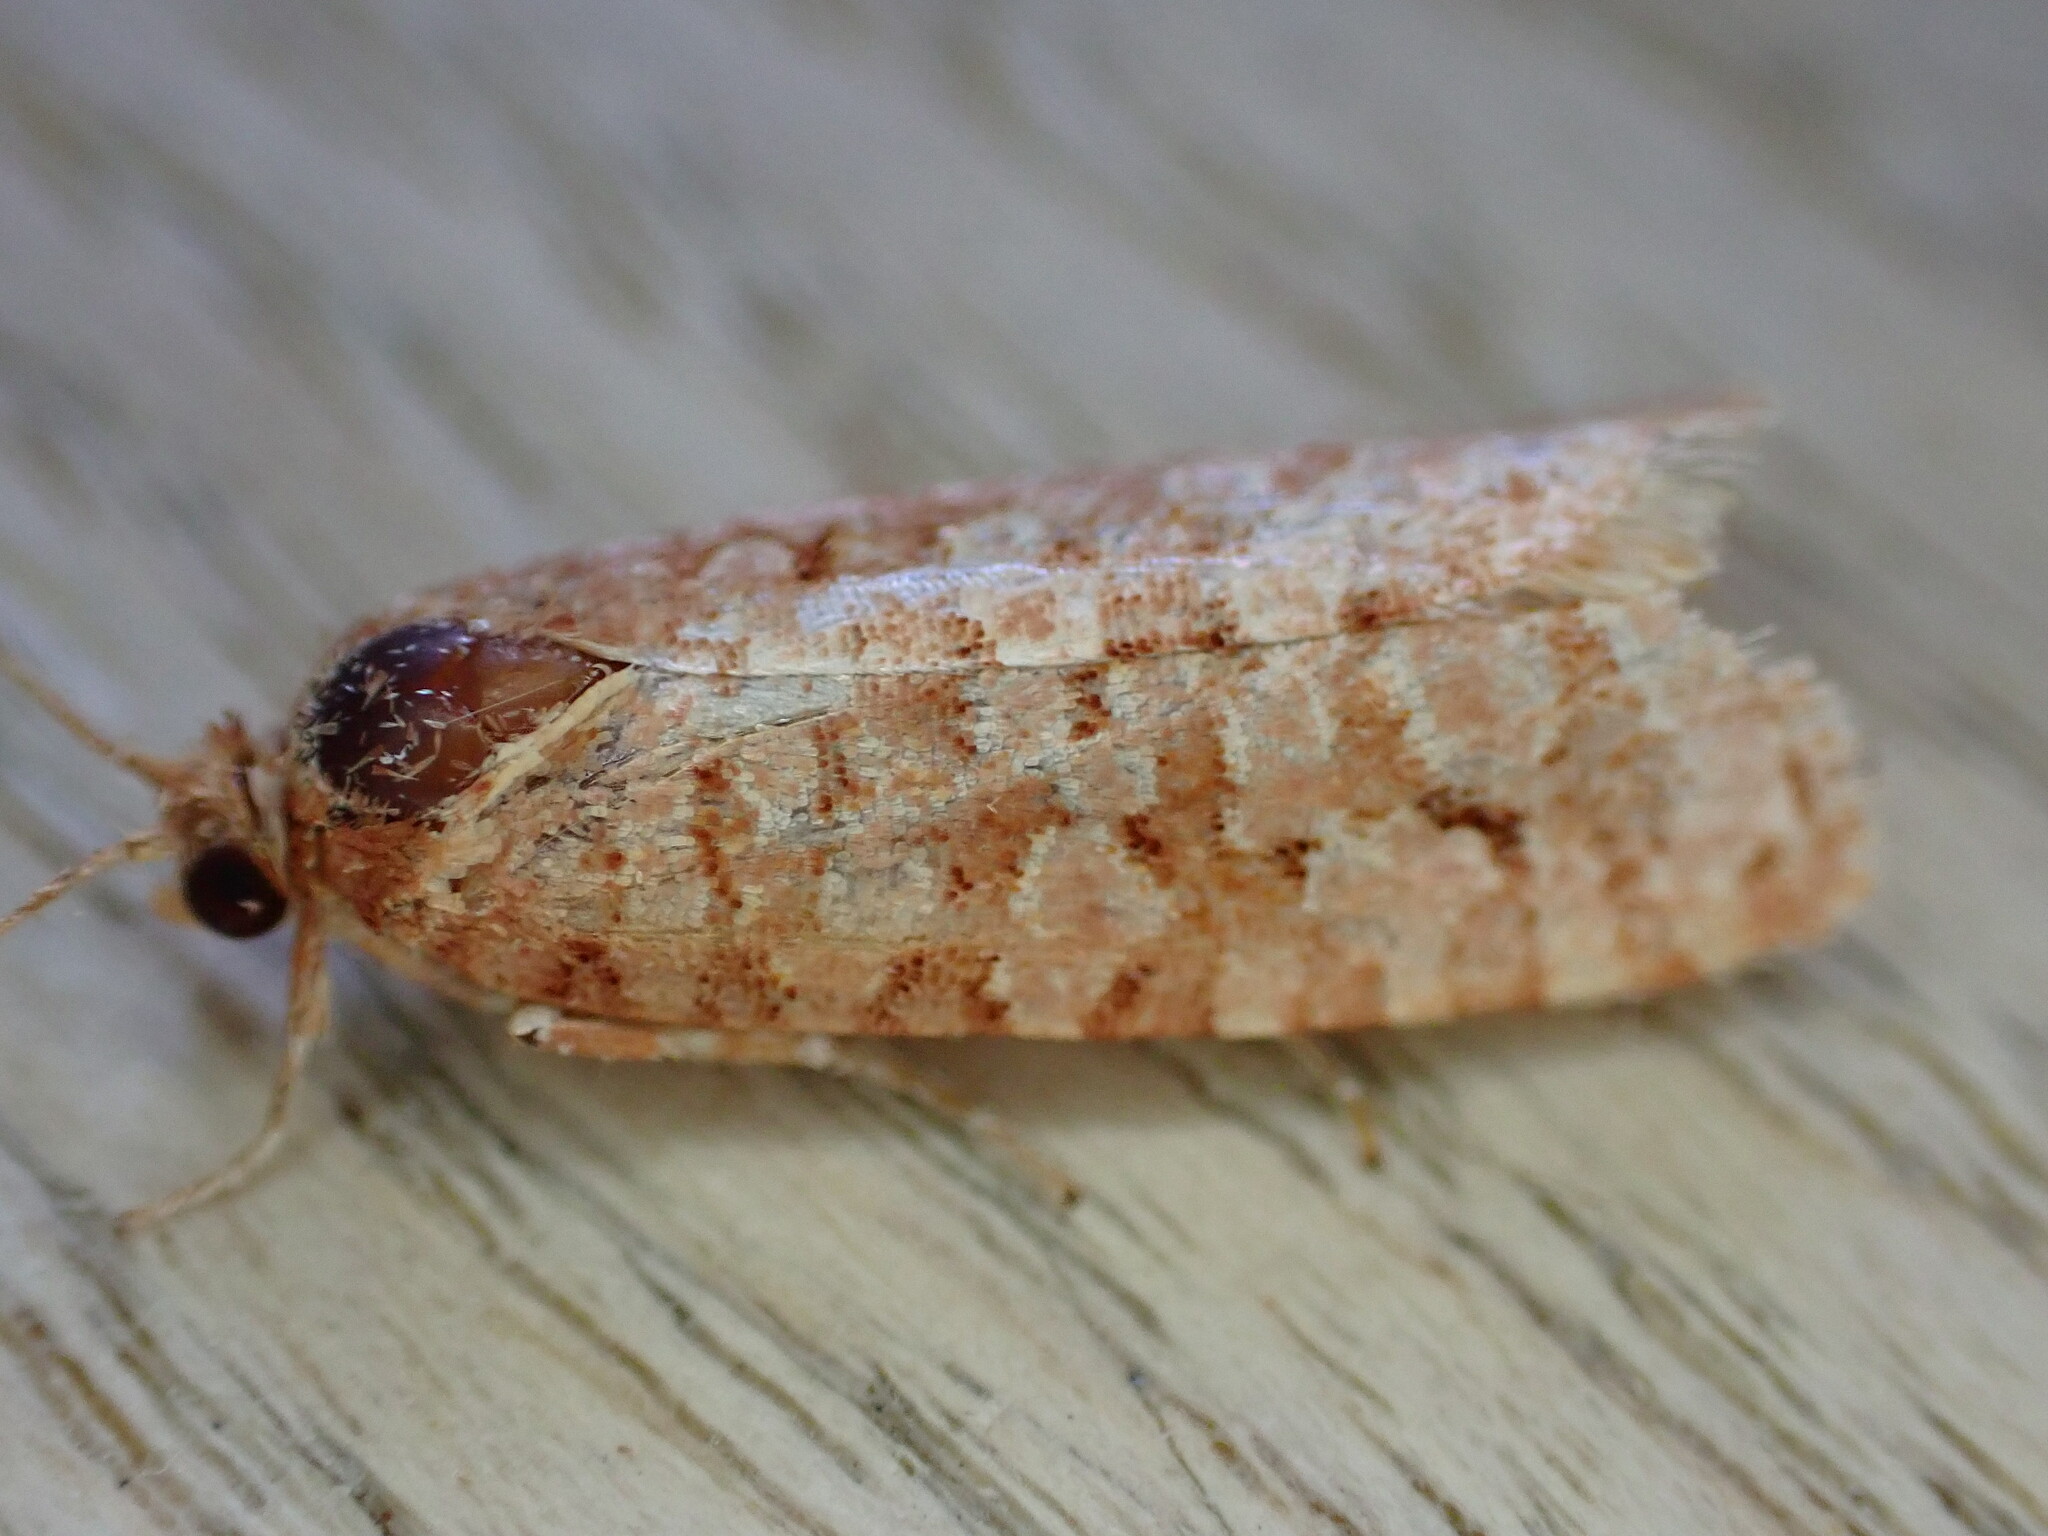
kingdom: Animalia
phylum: Arthropoda
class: Insecta
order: Lepidoptera
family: Tortricidae
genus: Lozotaeniodes
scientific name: Lozotaeniodes formosana
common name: Orange pine twist
